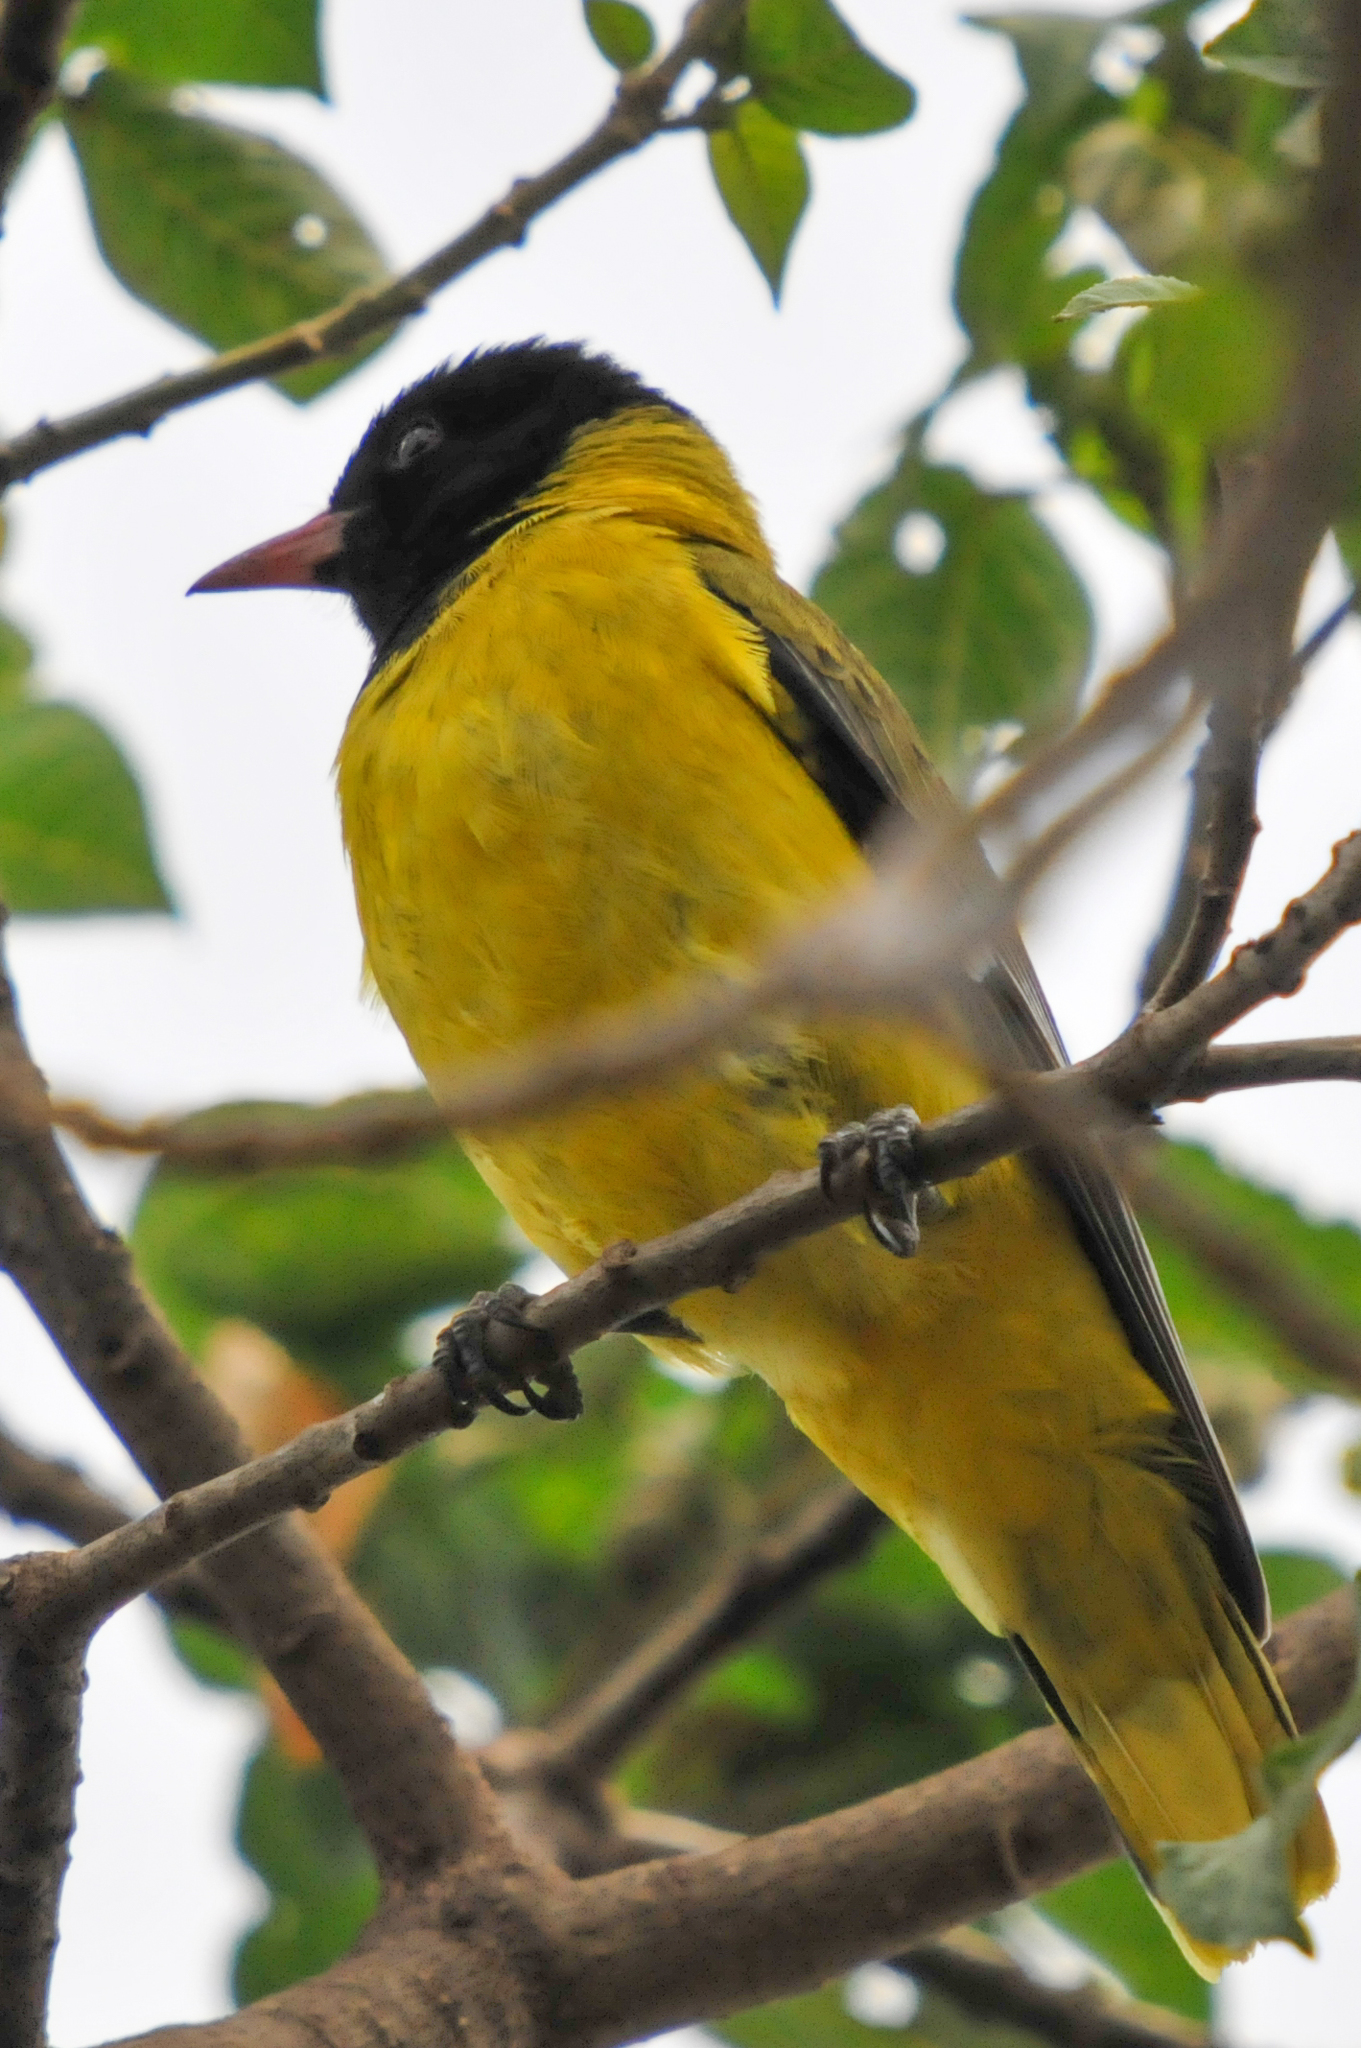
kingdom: Animalia
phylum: Chordata
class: Aves
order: Passeriformes
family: Oriolidae
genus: Oriolus
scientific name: Oriolus larvatus
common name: Black-headed oriole
